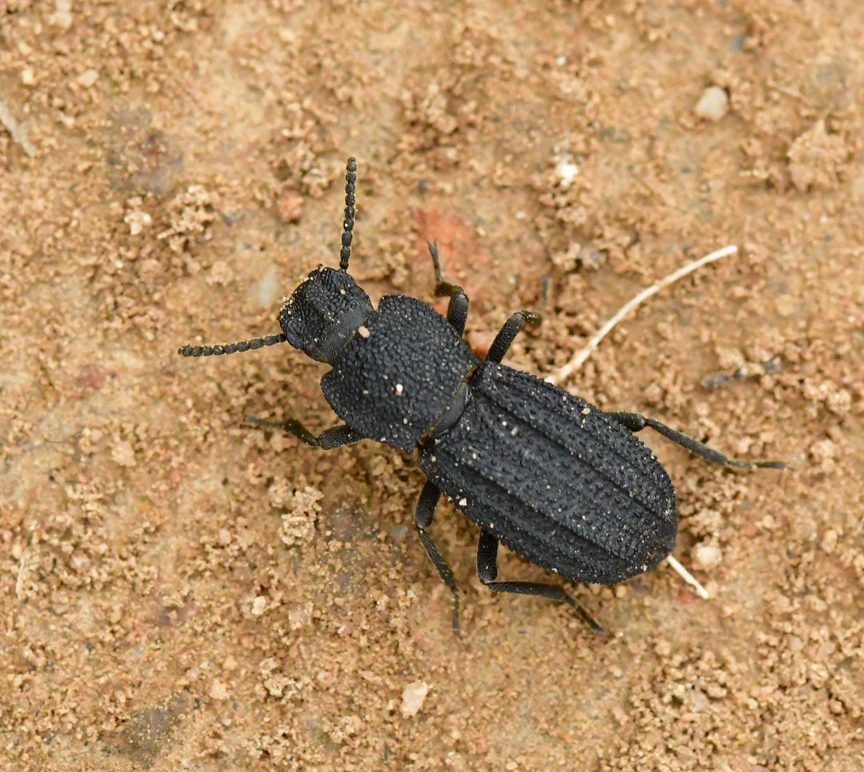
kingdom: Animalia
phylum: Arthropoda
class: Insecta
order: Coleoptera
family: Tenebrionidae
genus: Nyctoporis
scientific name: Nyctoporis carinata
